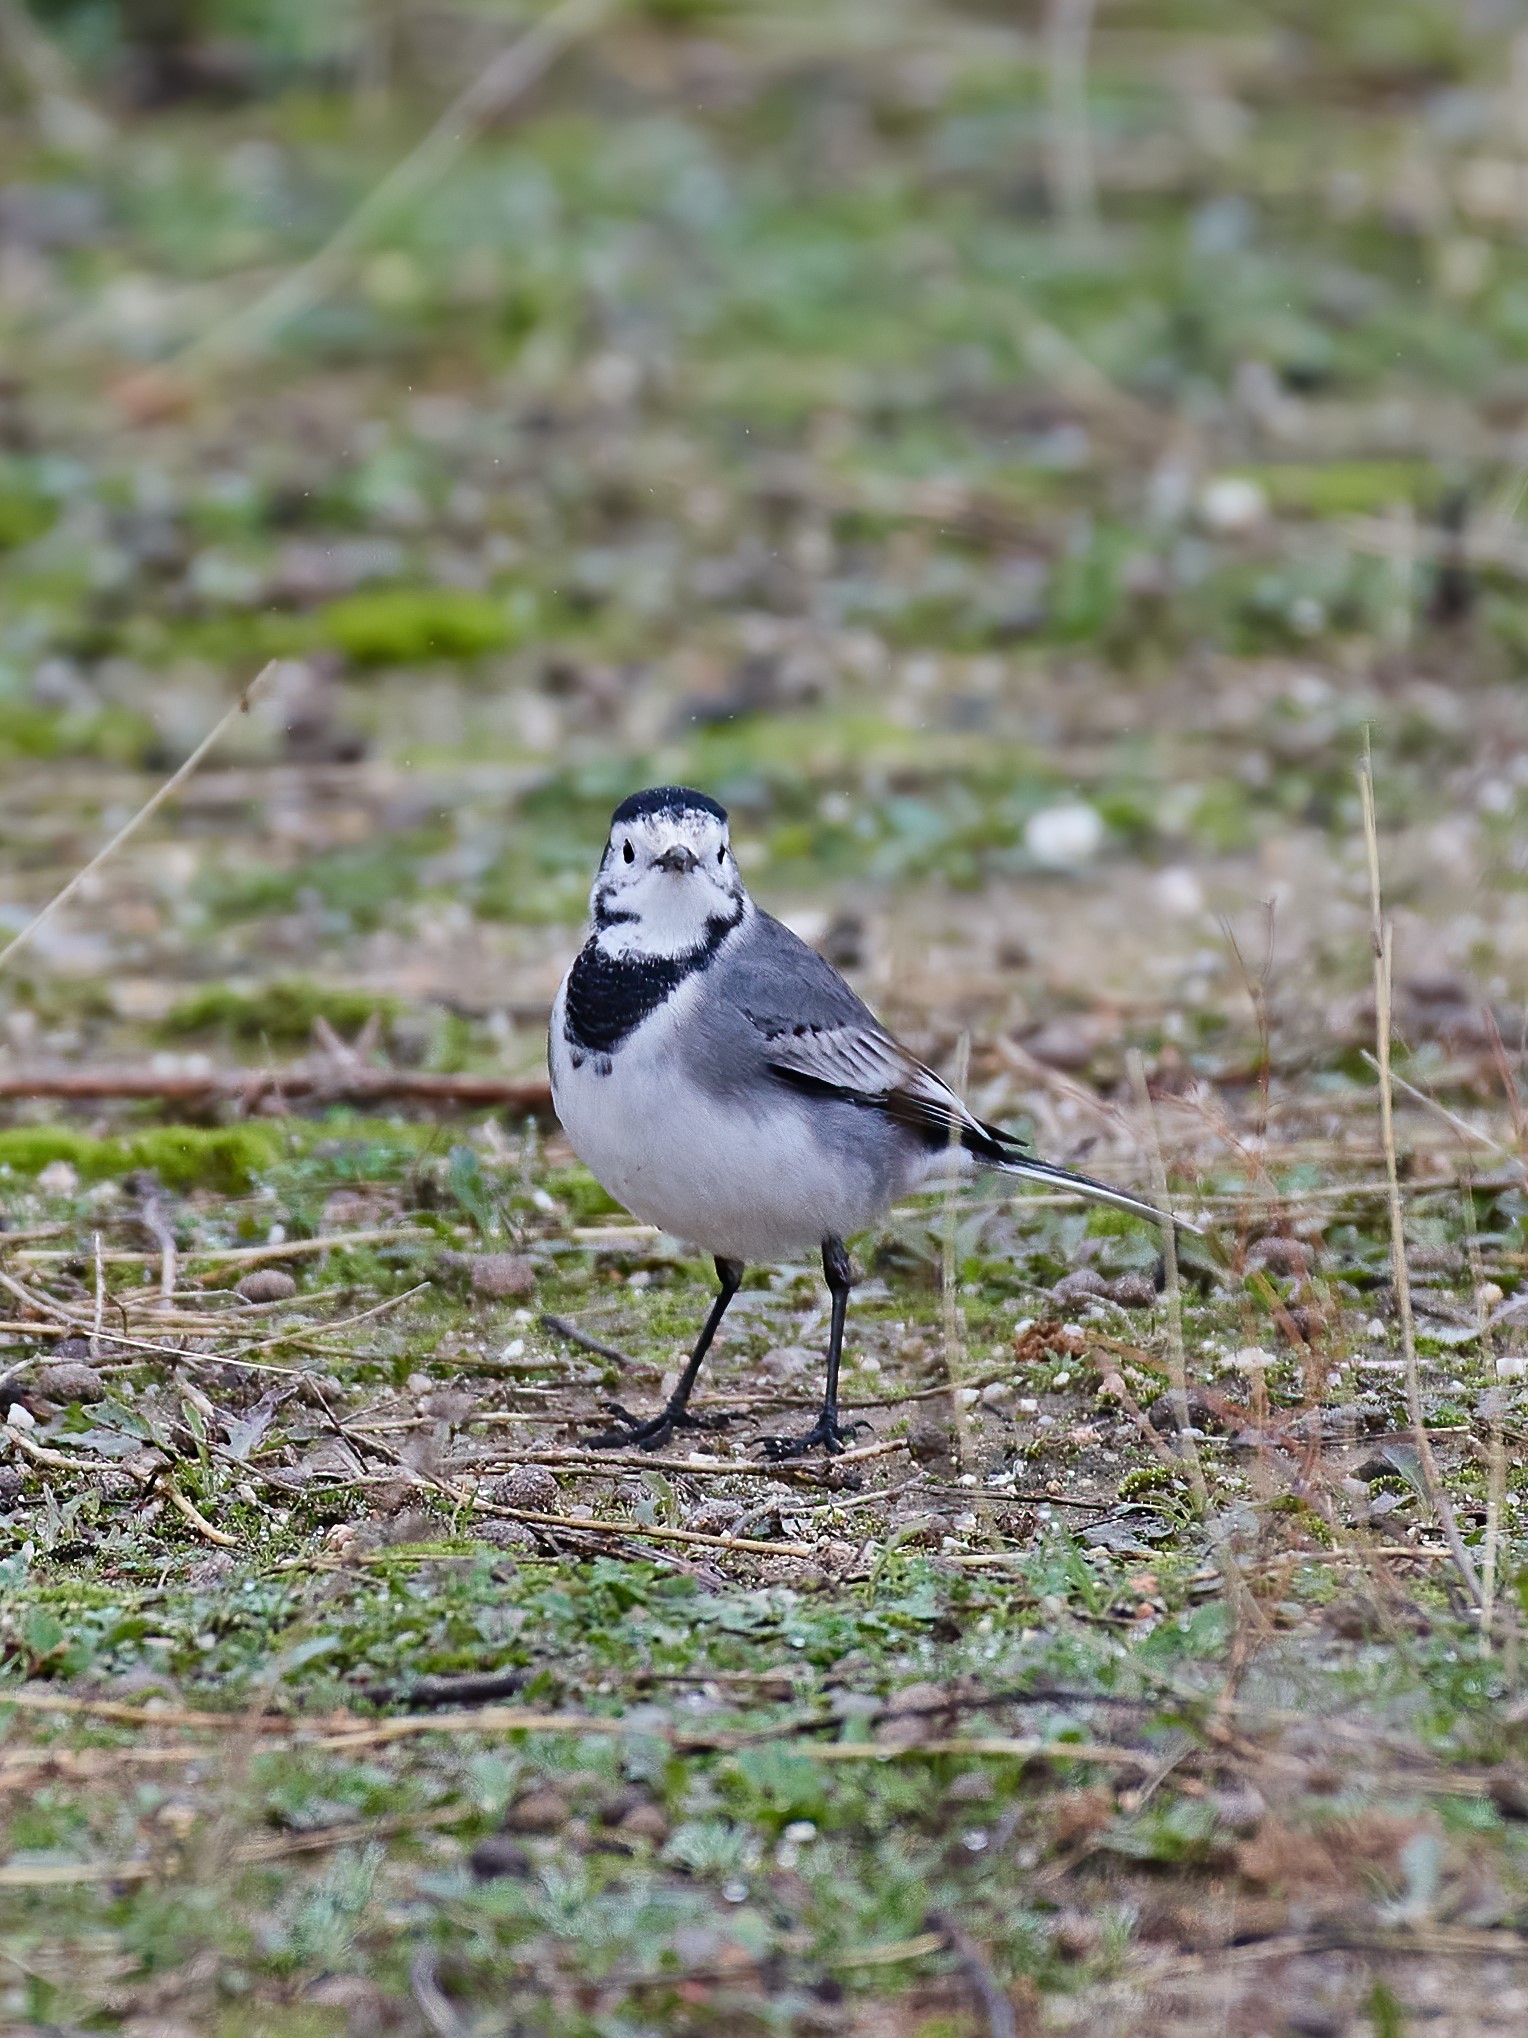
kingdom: Animalia
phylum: Chordata
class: Aves
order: Passeriformes
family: Motacillidae
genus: Motacilla
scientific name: Motacilla alba
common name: White wagtail
